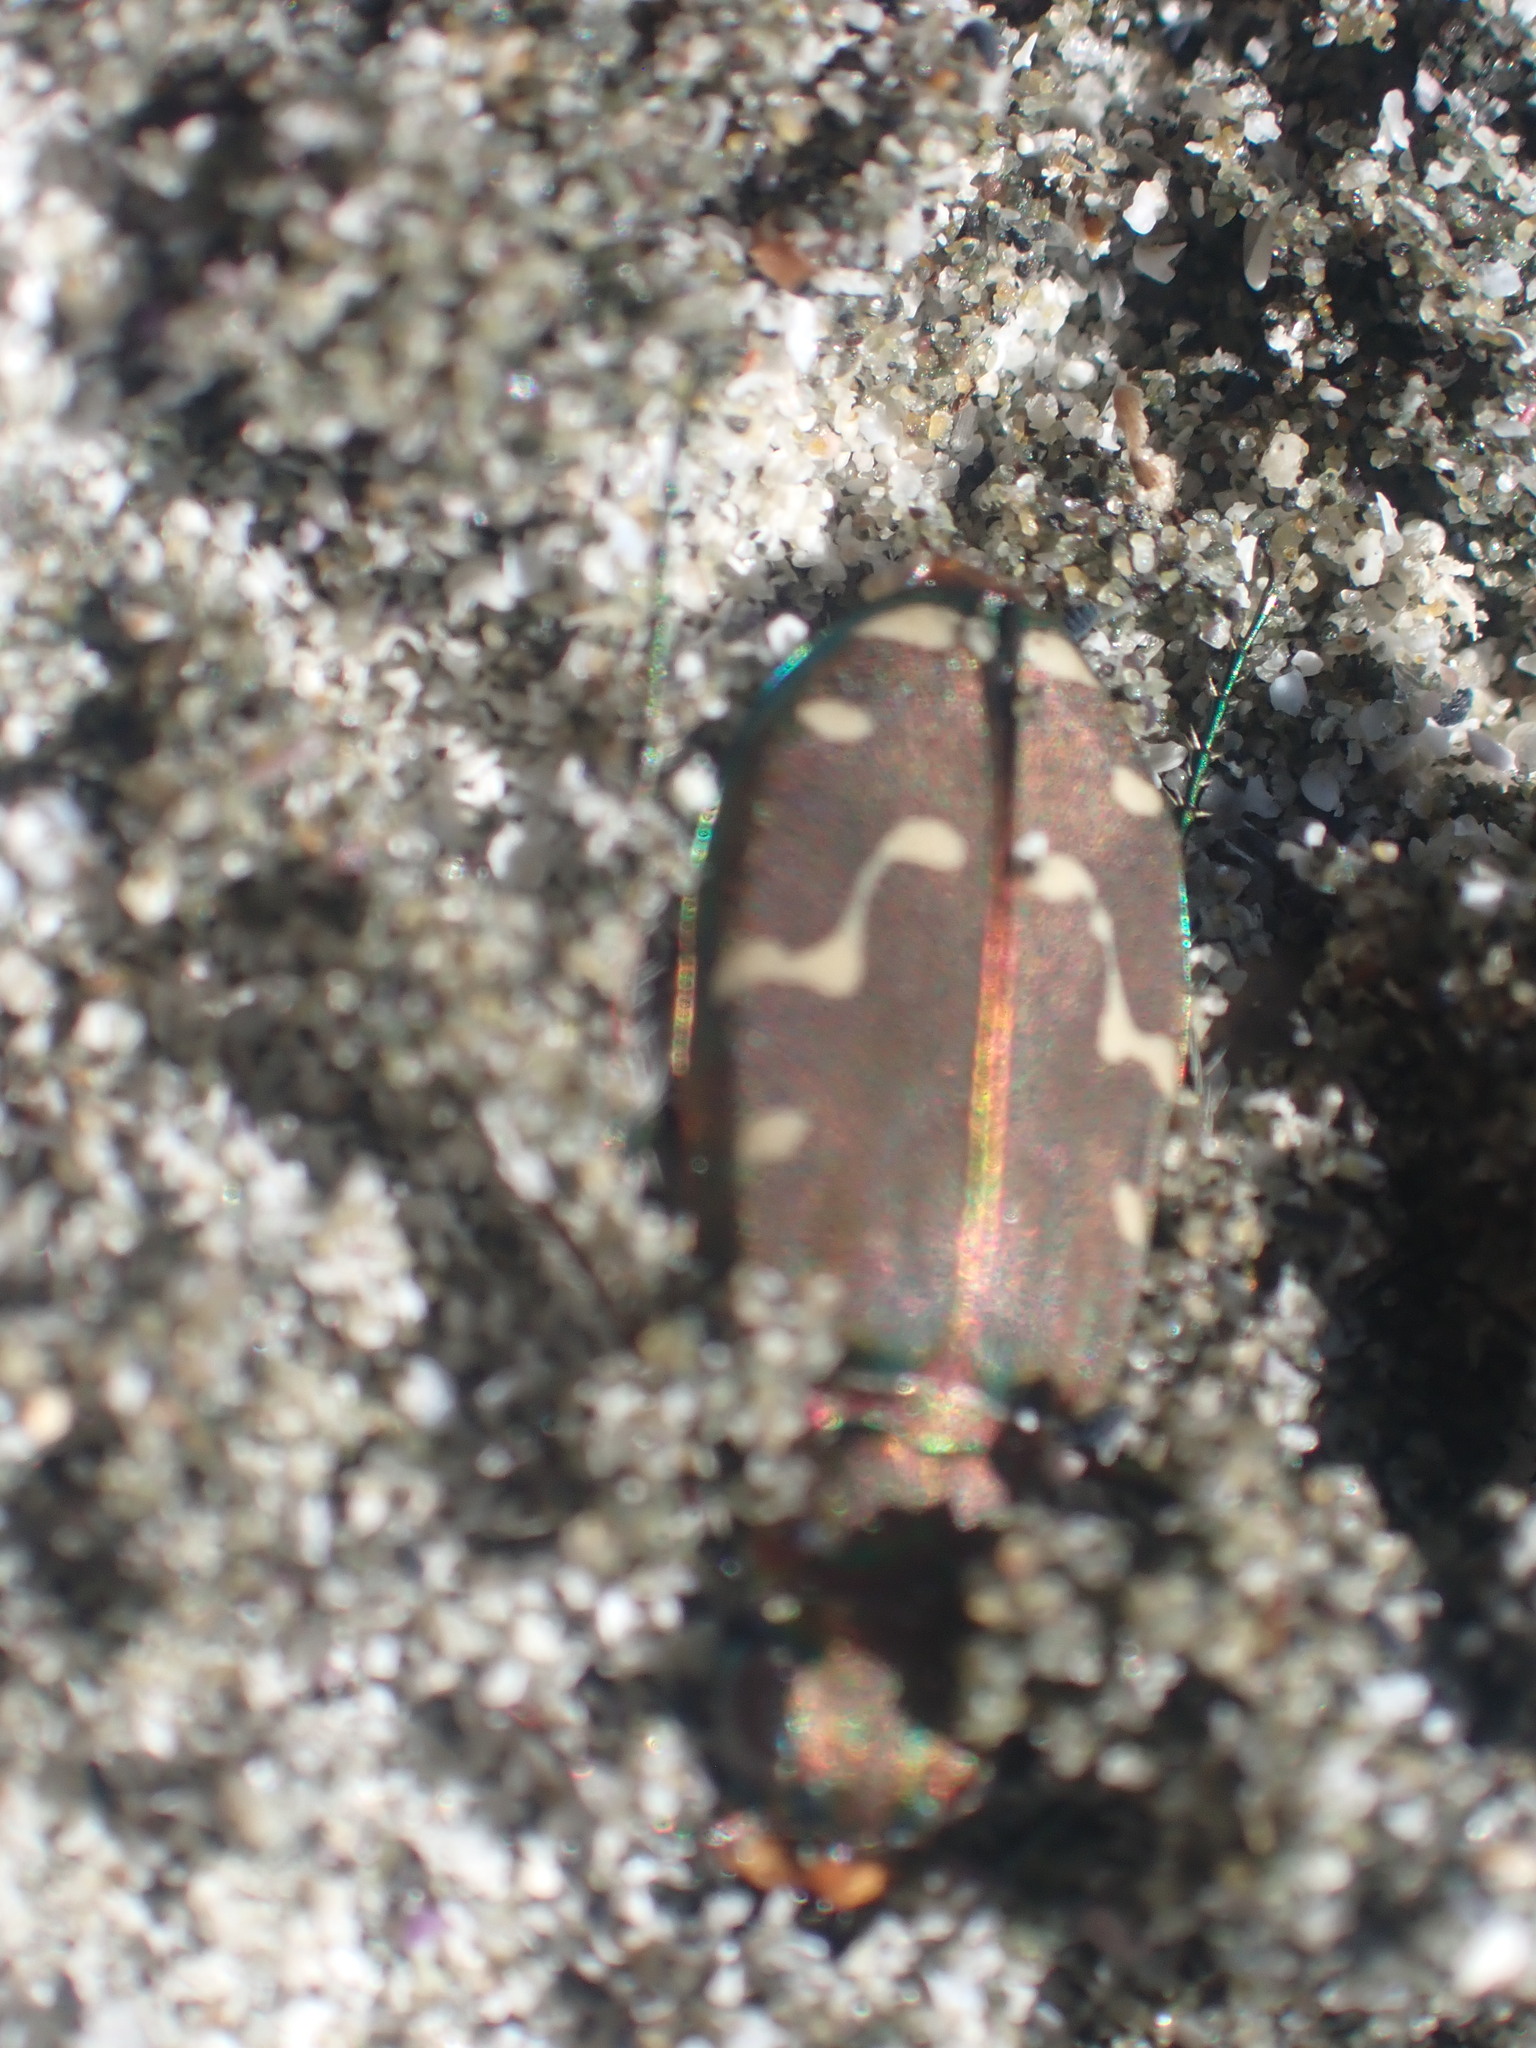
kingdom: Animalia
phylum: Arthropoda
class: Insecta
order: Coleoptera
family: Carabidae
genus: Cicindela
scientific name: Cicindela oregona
